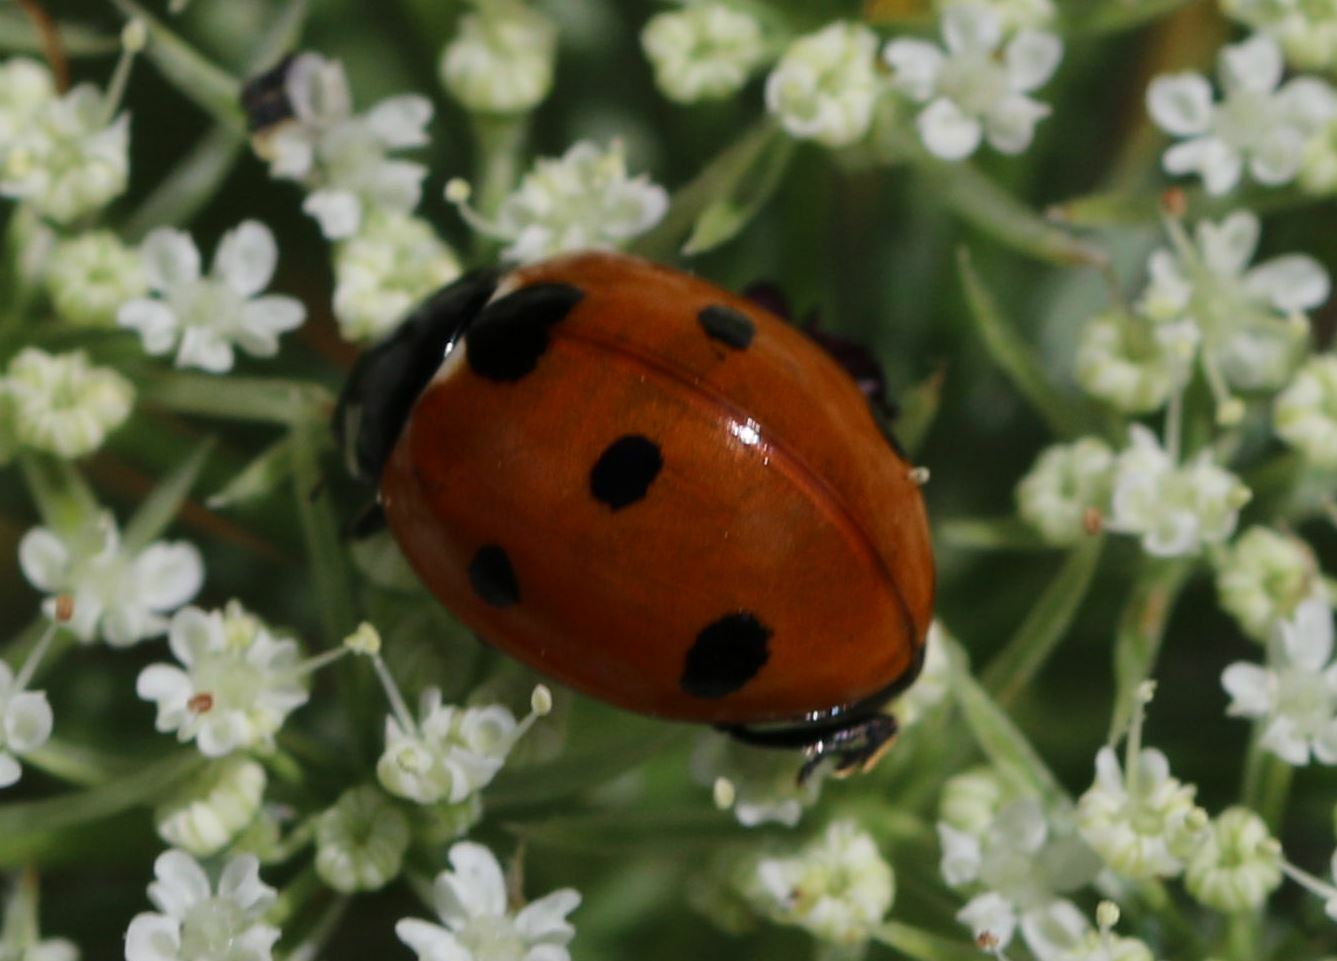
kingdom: Animalia
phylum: Arthropoda
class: Insecta
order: Coleoptera
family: Coccinellidae
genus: Coccinella
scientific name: Coccinella septempunctata
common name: Sevenspotted lady beetle
